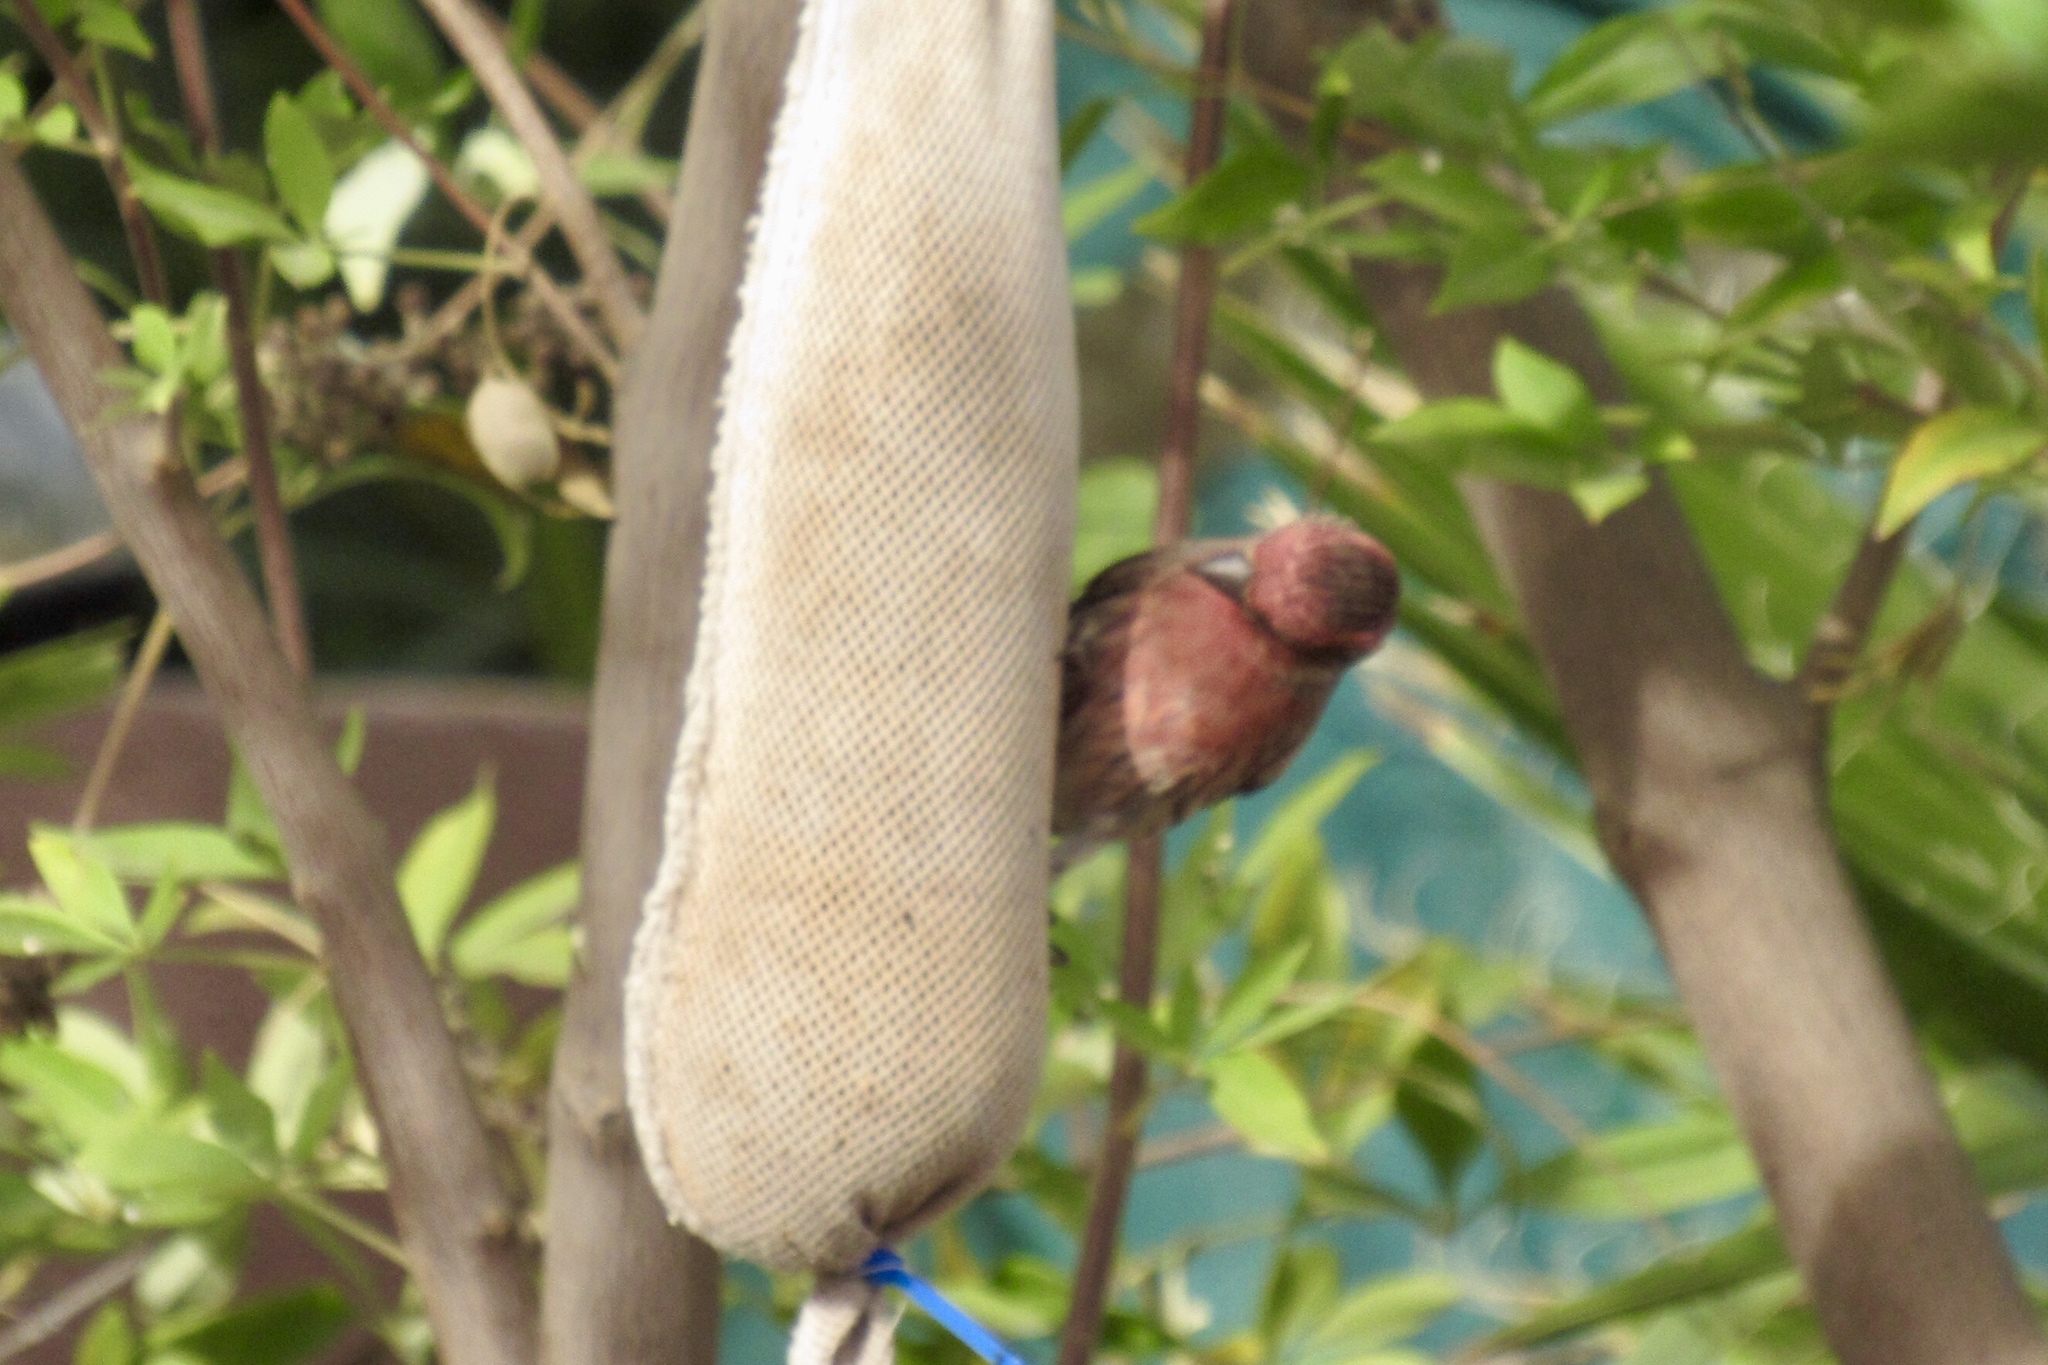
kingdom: Animalia
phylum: Chordata
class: Aves
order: Passeriformes
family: Fringillidae
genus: Haemorhous
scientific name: Haemorhous mexicanus
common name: House finch
